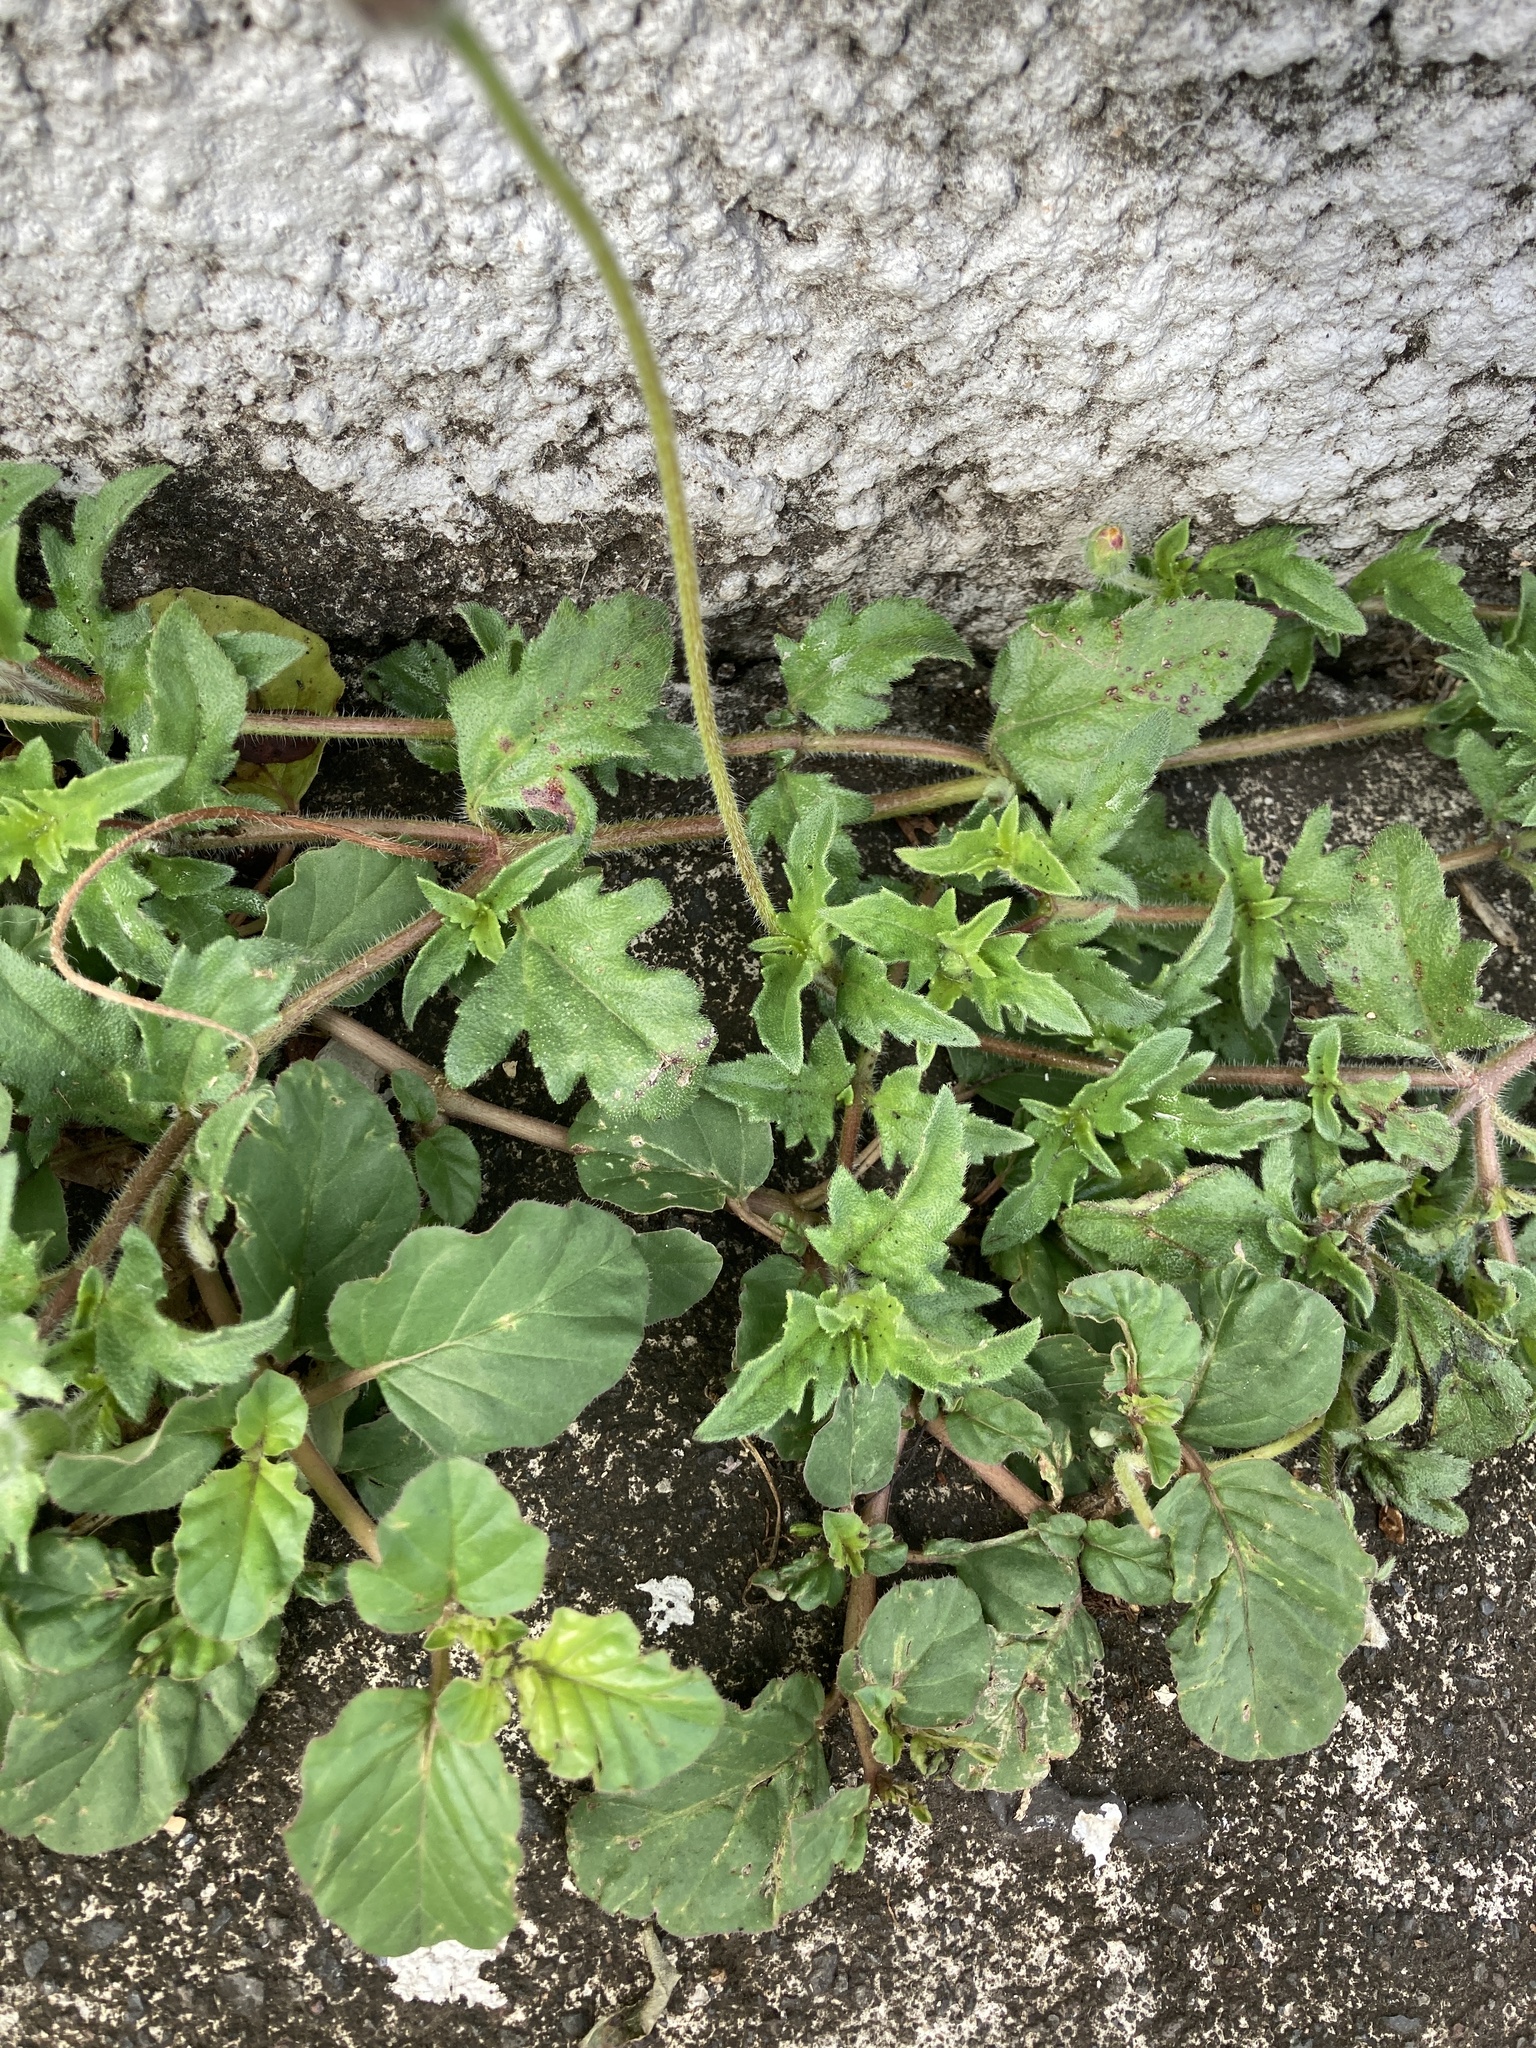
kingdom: Plantae
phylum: Tracheophyta
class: Magnoliopsida
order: Asterales
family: Asteraceae
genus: Tridax
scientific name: Tridax procumbens
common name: Coatbuttons
